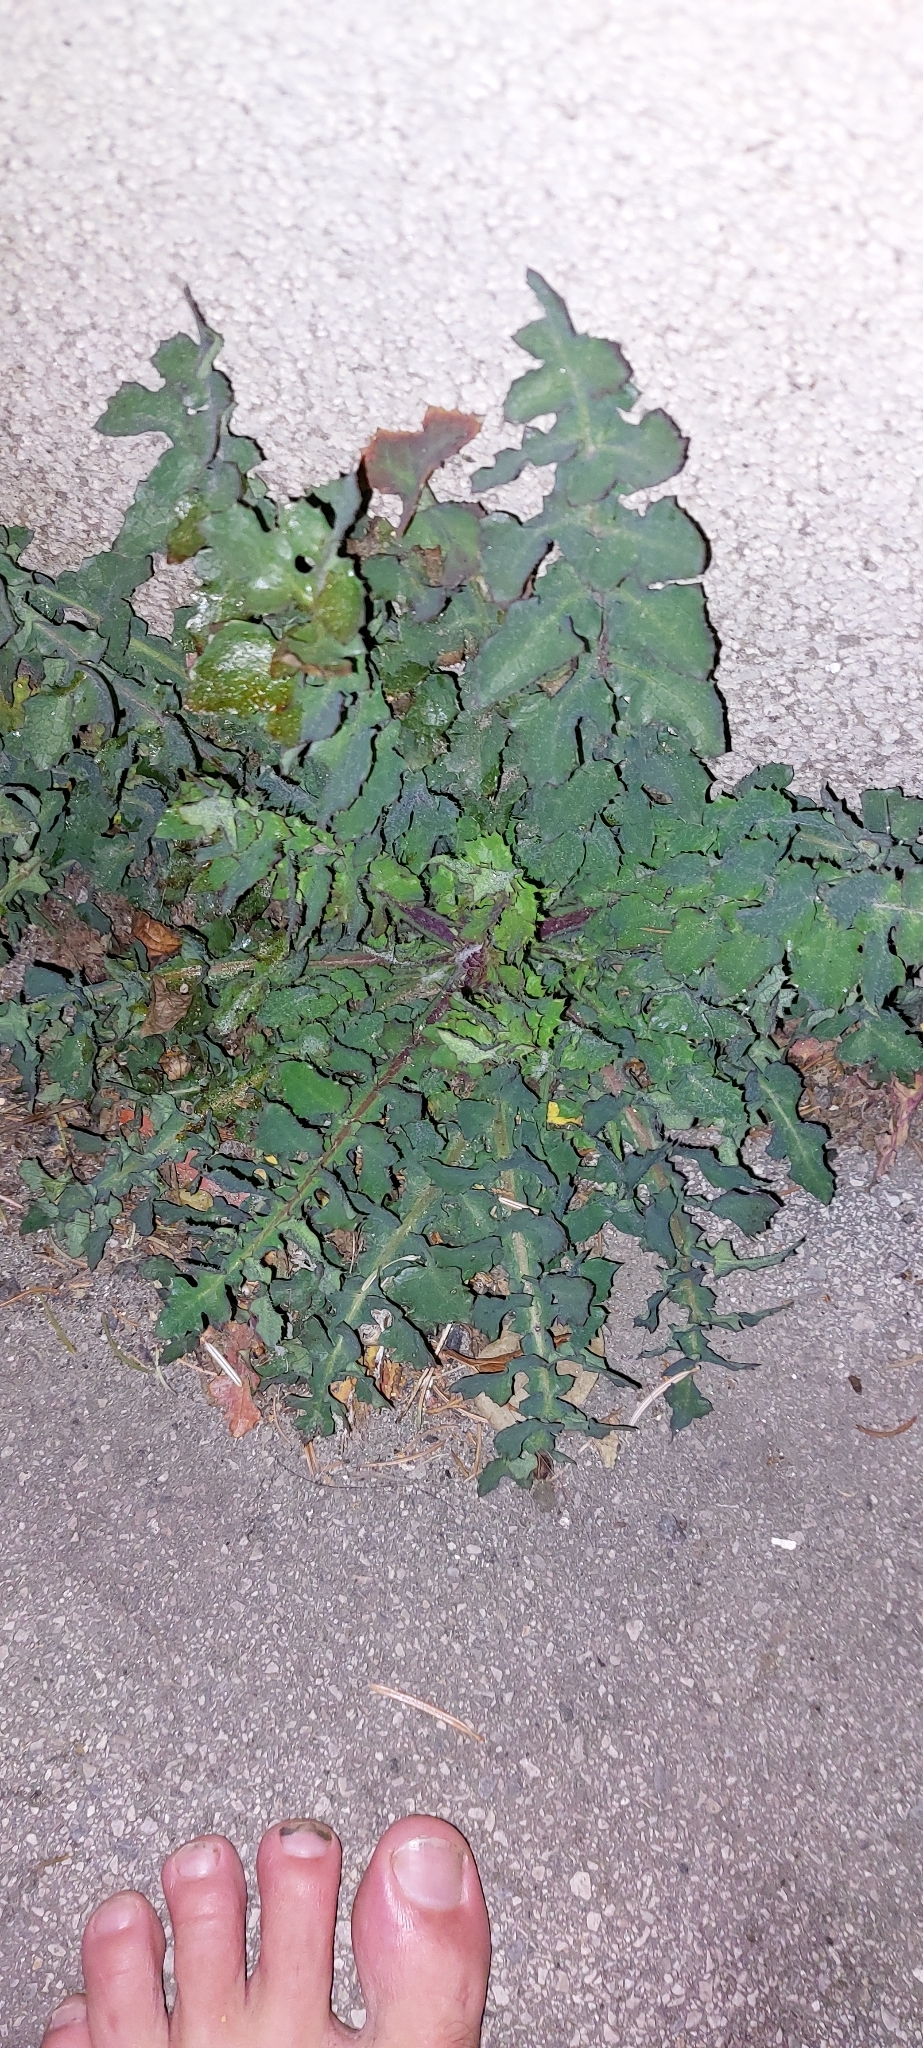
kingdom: Plantae
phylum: Tracheophyta
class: Magnoliopsida
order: Asterales
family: Asteraceae
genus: Sonchus
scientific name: Sonchus oleraceus
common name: Common sowthistle
